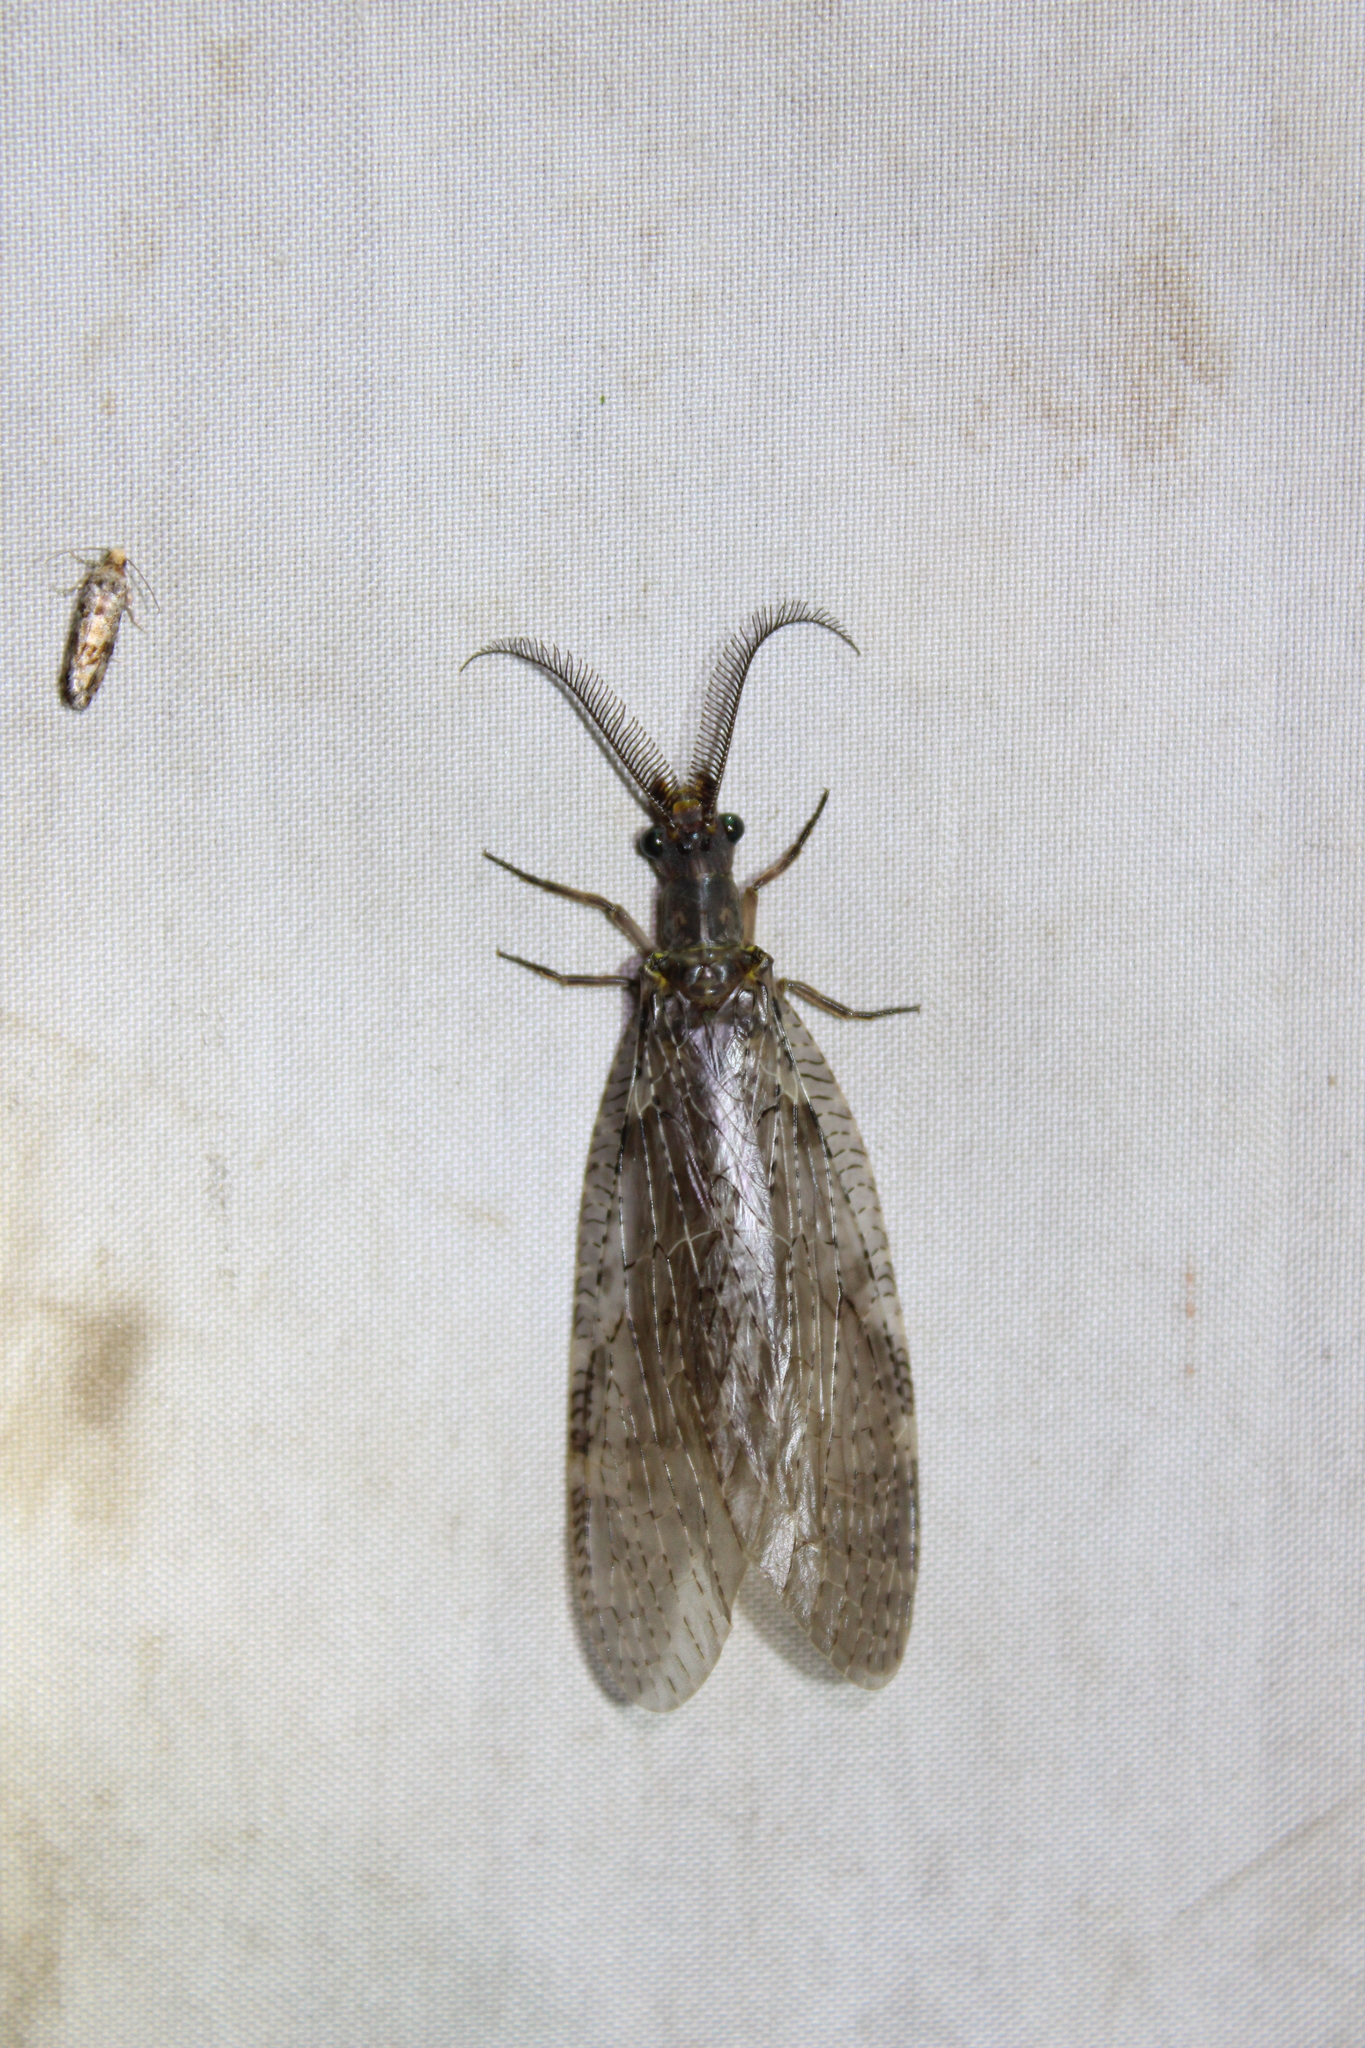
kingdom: Animalia
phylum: Arthropoda
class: Insecta
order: Megaloptera
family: Corydalidae
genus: Chauliodes
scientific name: Chauliodes pectinicornis
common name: Summer fishfly
